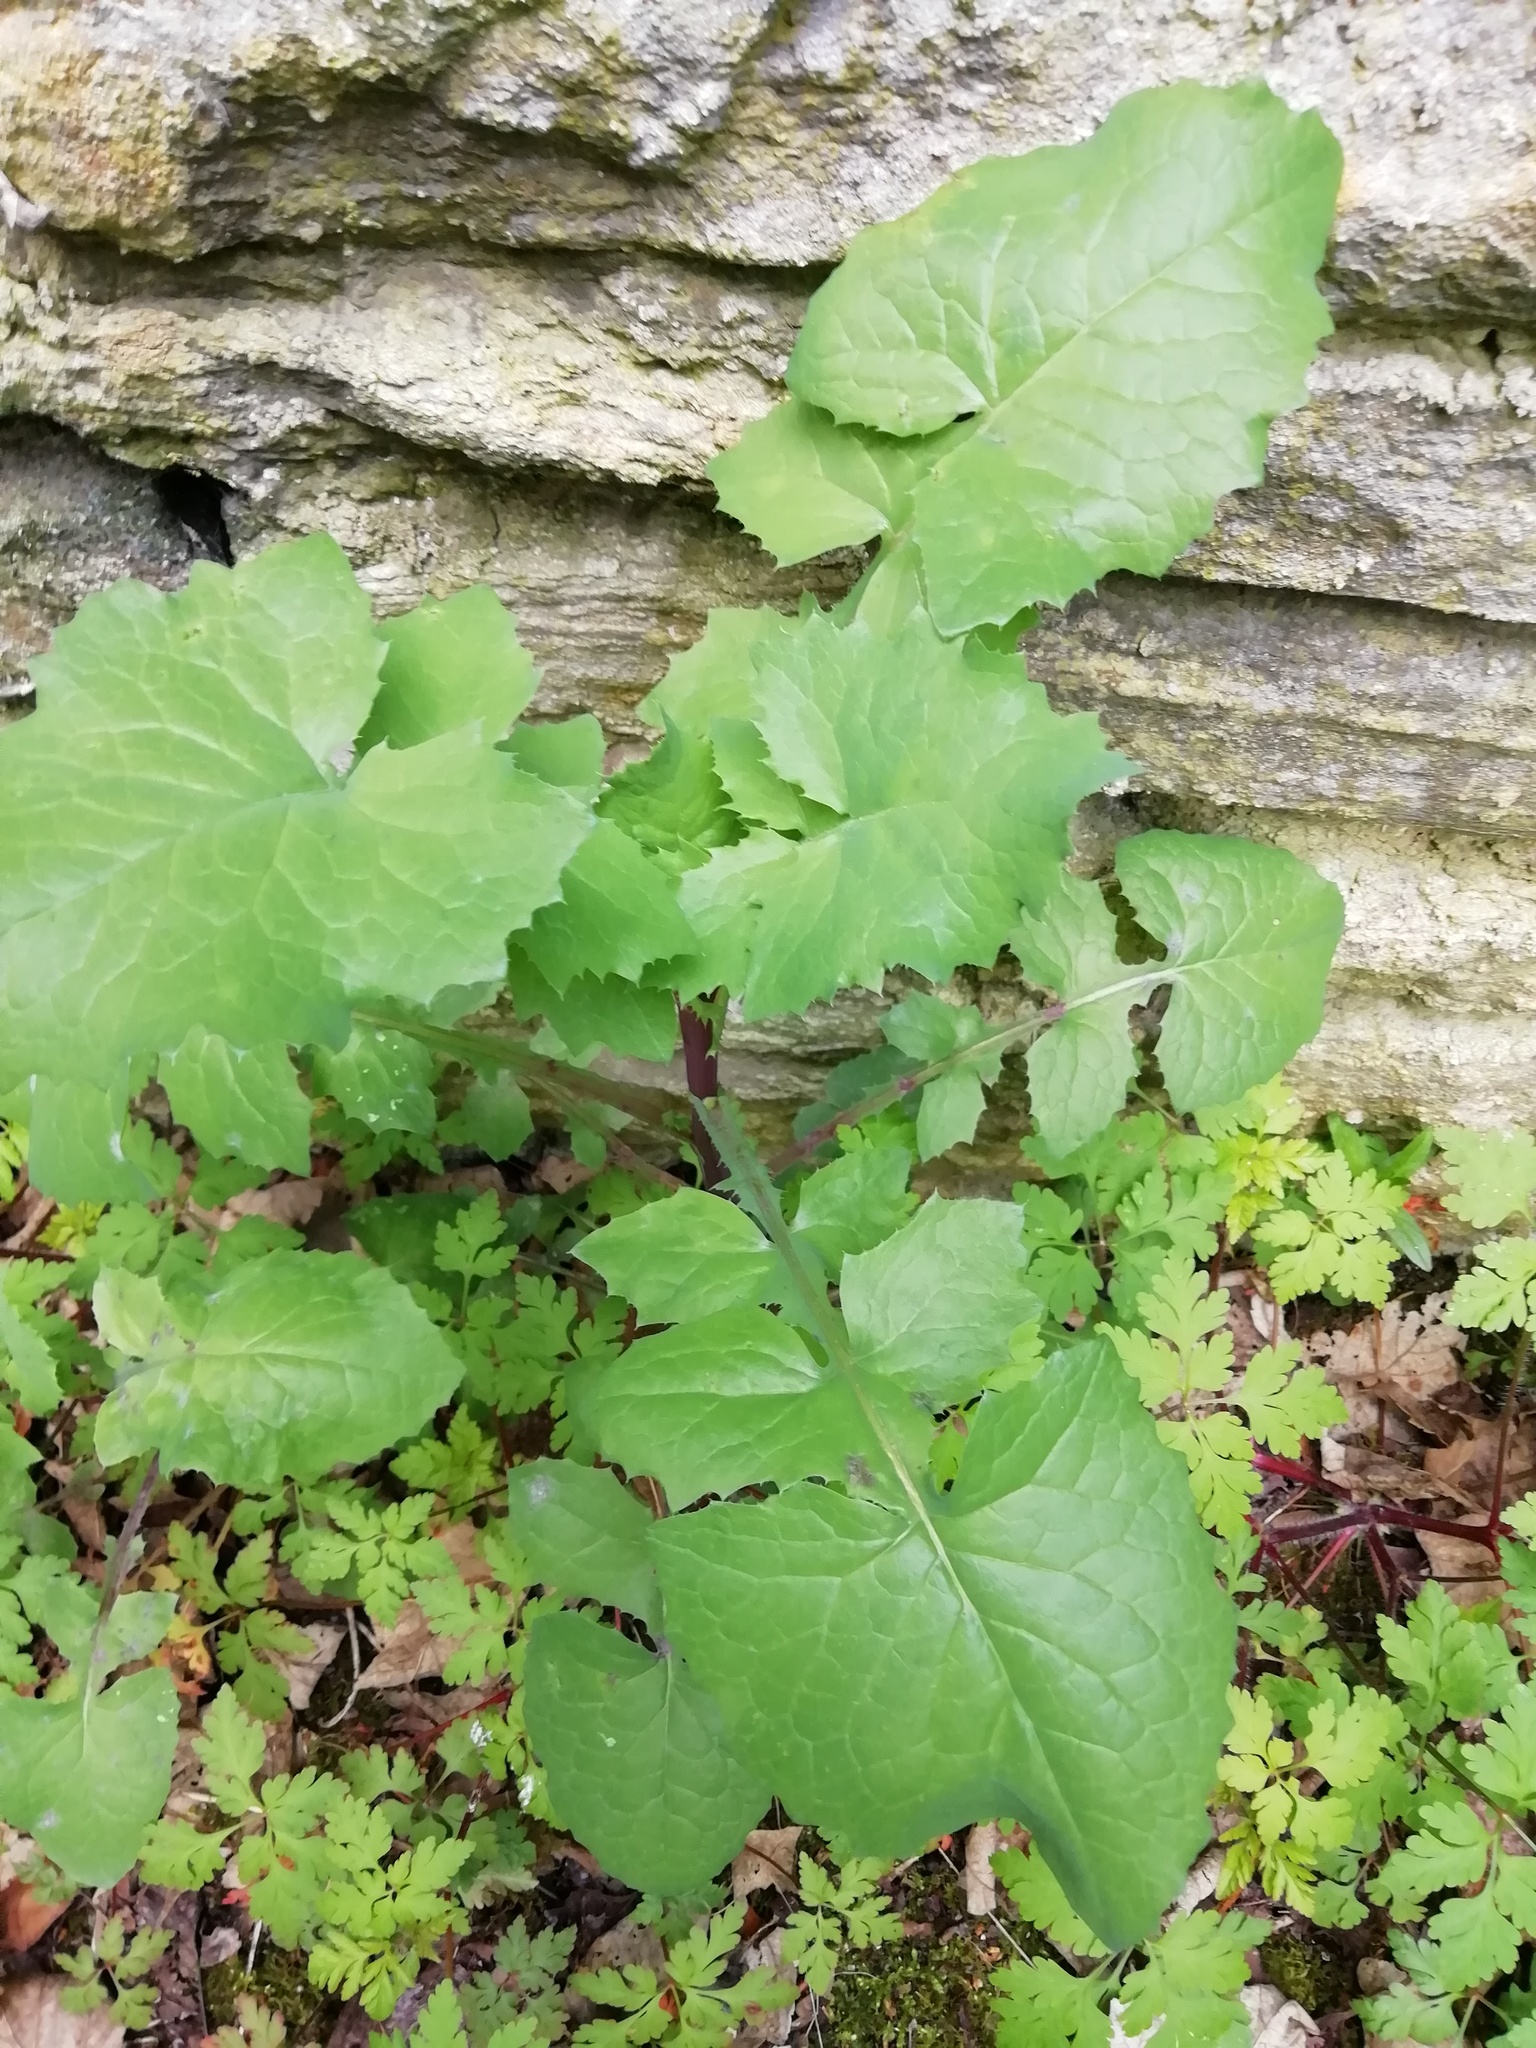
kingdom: Plantae
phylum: Tracheophyta
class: Magnoliopsida
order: Asterales
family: Asteraceae
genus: Sonchus
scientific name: Sonchus oleraceus
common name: Common sowthistle
